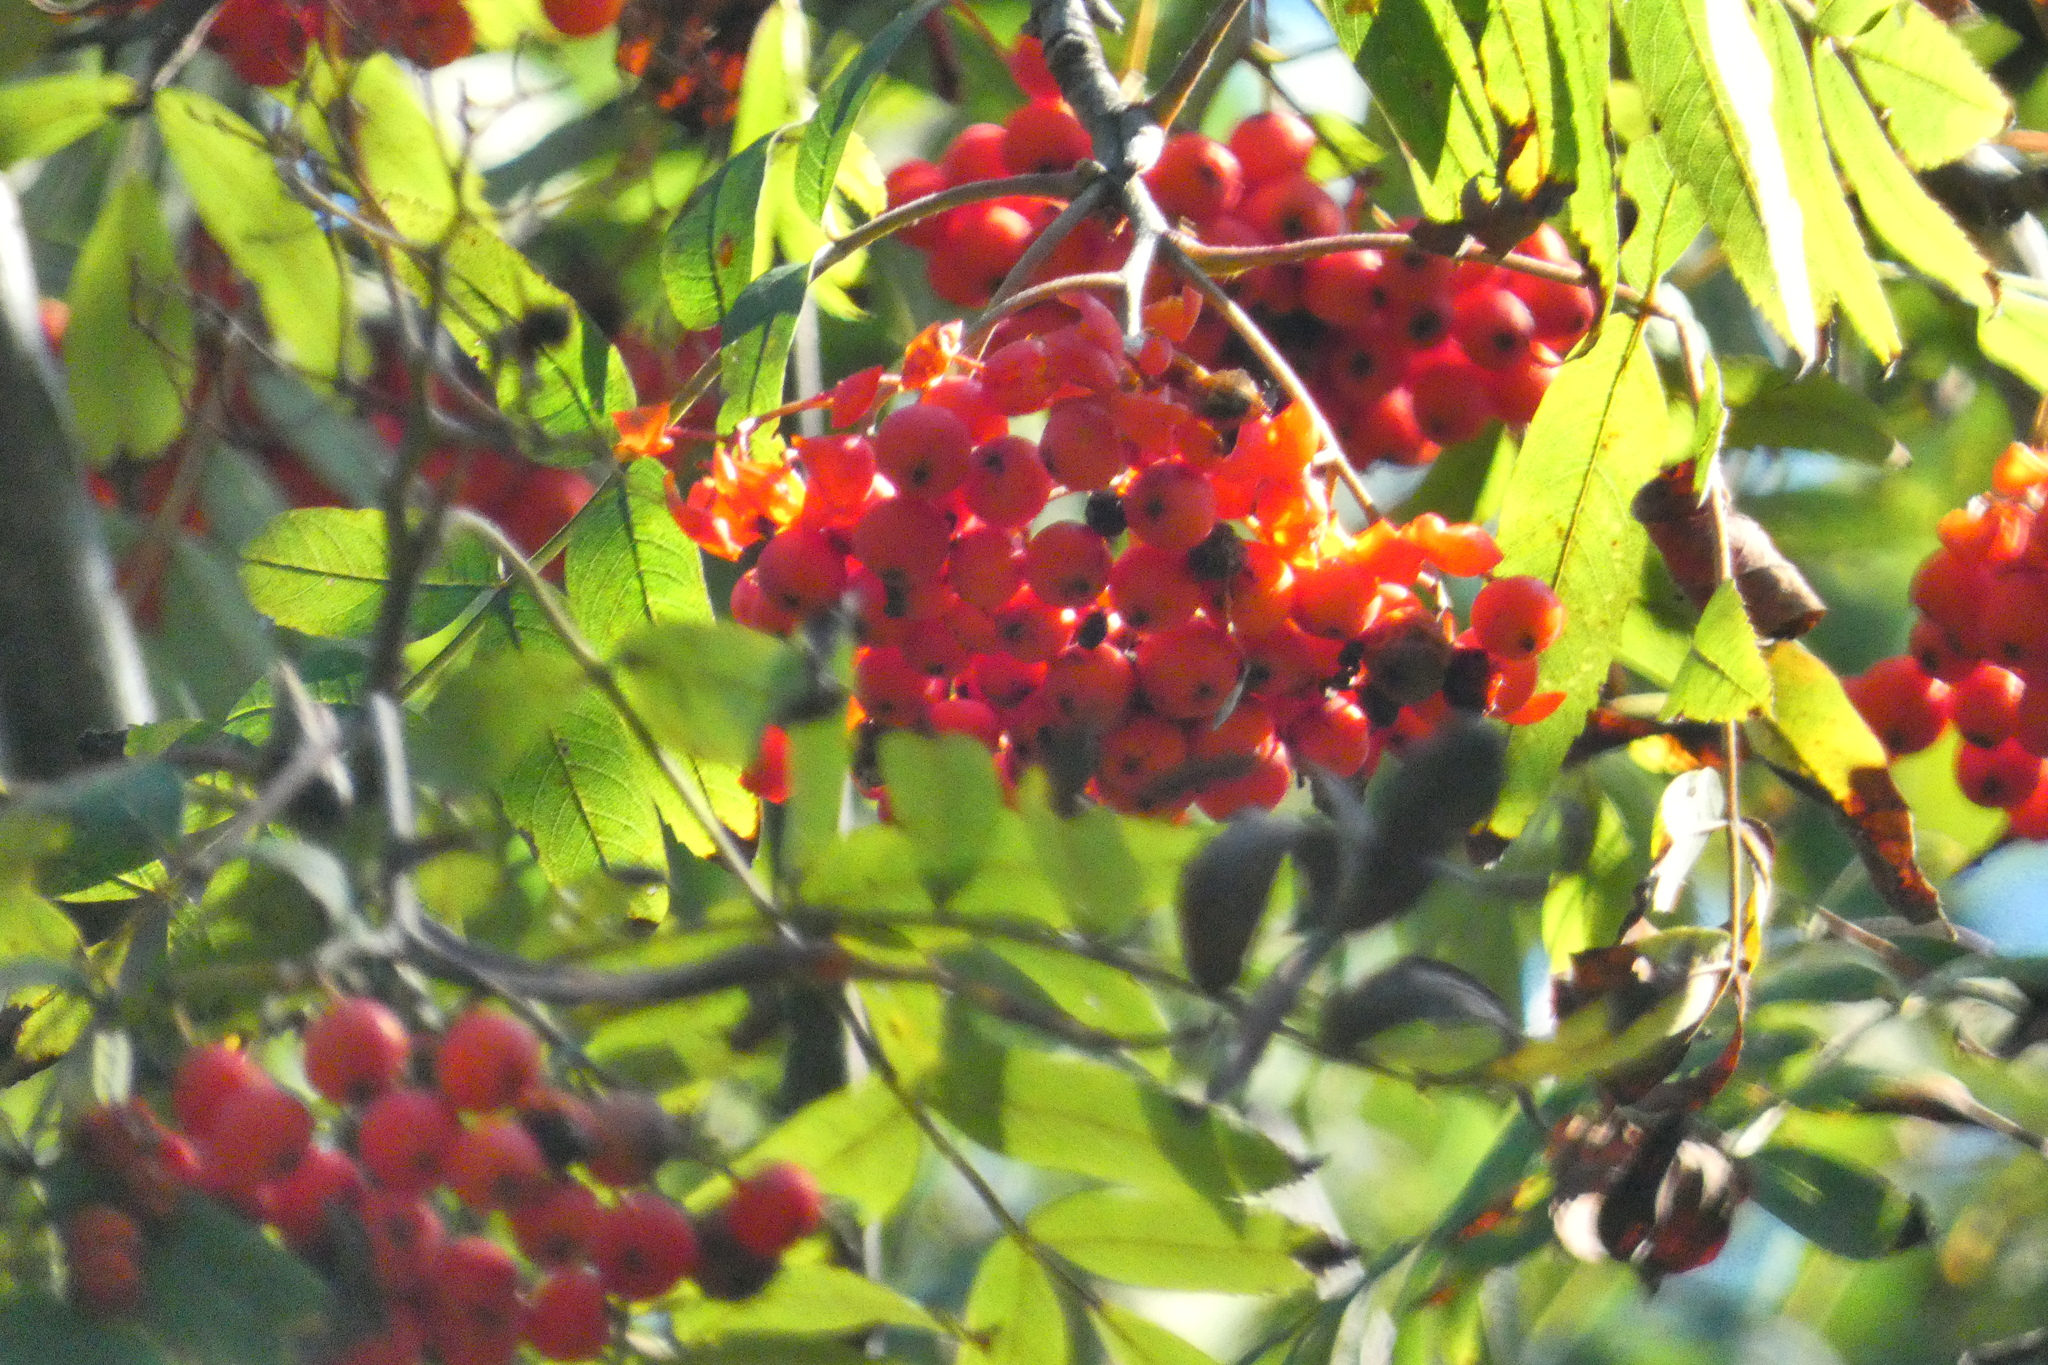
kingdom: Plantae
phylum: Tracheophyta
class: Magnoliopsida
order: Rosales
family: Rosaceae
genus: Sorbus
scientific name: Sorbus aucuparia
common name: Rowan
